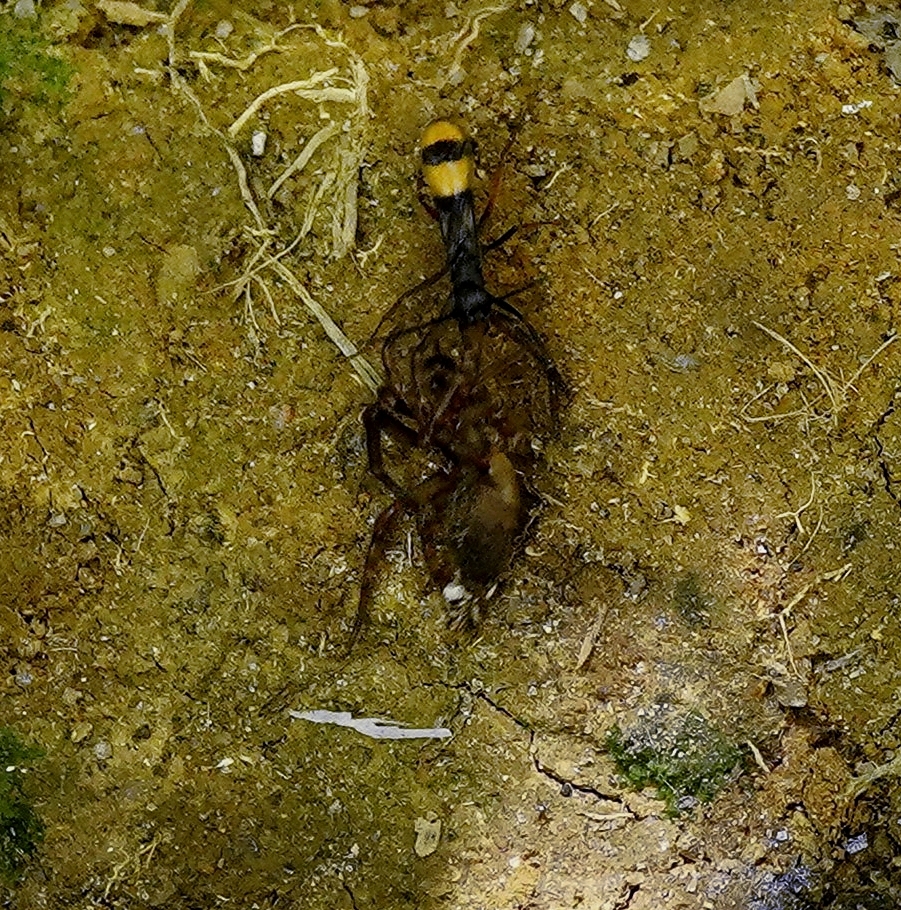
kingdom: Animalia
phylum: Arthropoda
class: Insecta
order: Hymenoptera
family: Pompilidae
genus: Priocnemis
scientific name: Priocnemis venustipennis
